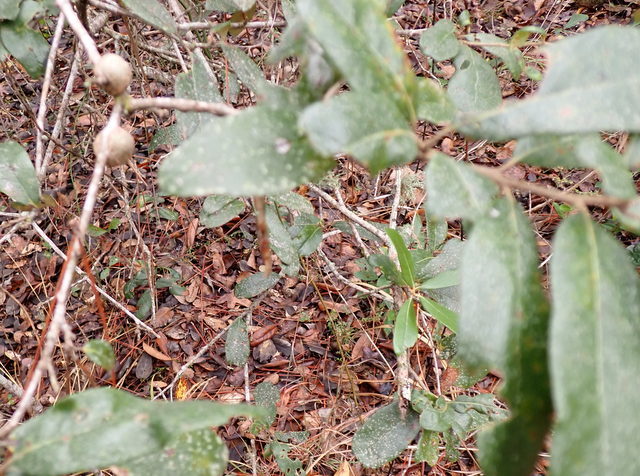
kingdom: Animalia
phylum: Arthropoda
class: Insecta
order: Hymenoptera
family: Cynipidae
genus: Callirhytis
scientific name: Callirhytis
